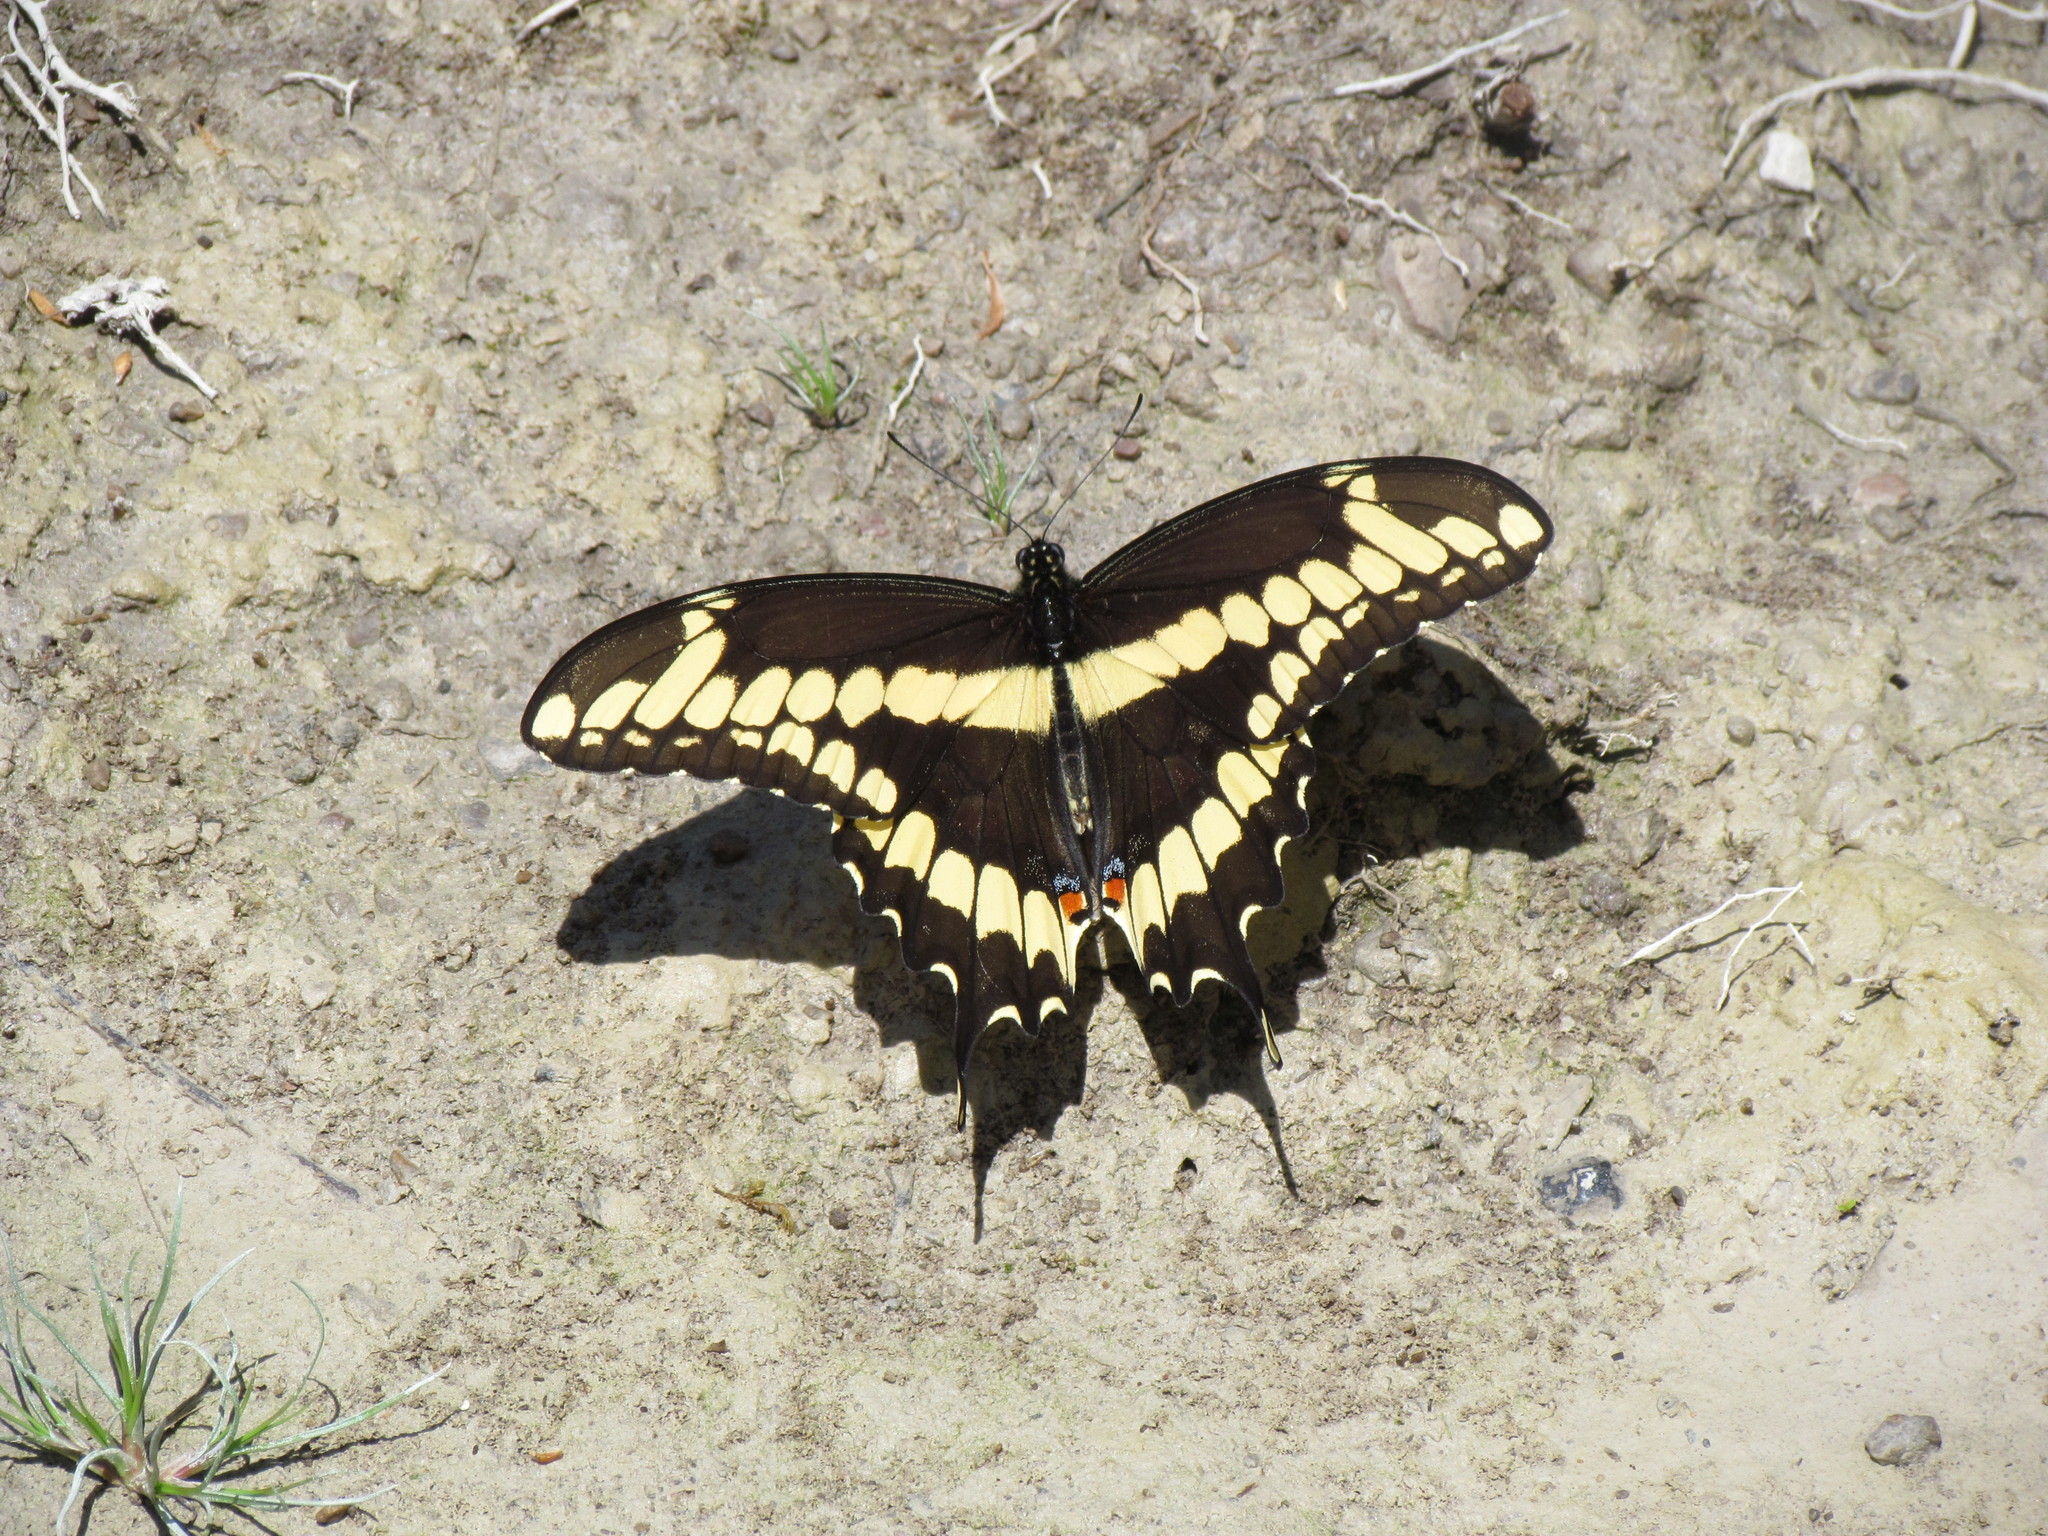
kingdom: Animalia
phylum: Arthropoda
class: Insecta
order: Lepidoptera
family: Papilionidae
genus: Papilio
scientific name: Papilio cresphontes
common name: Giant swallowtail
